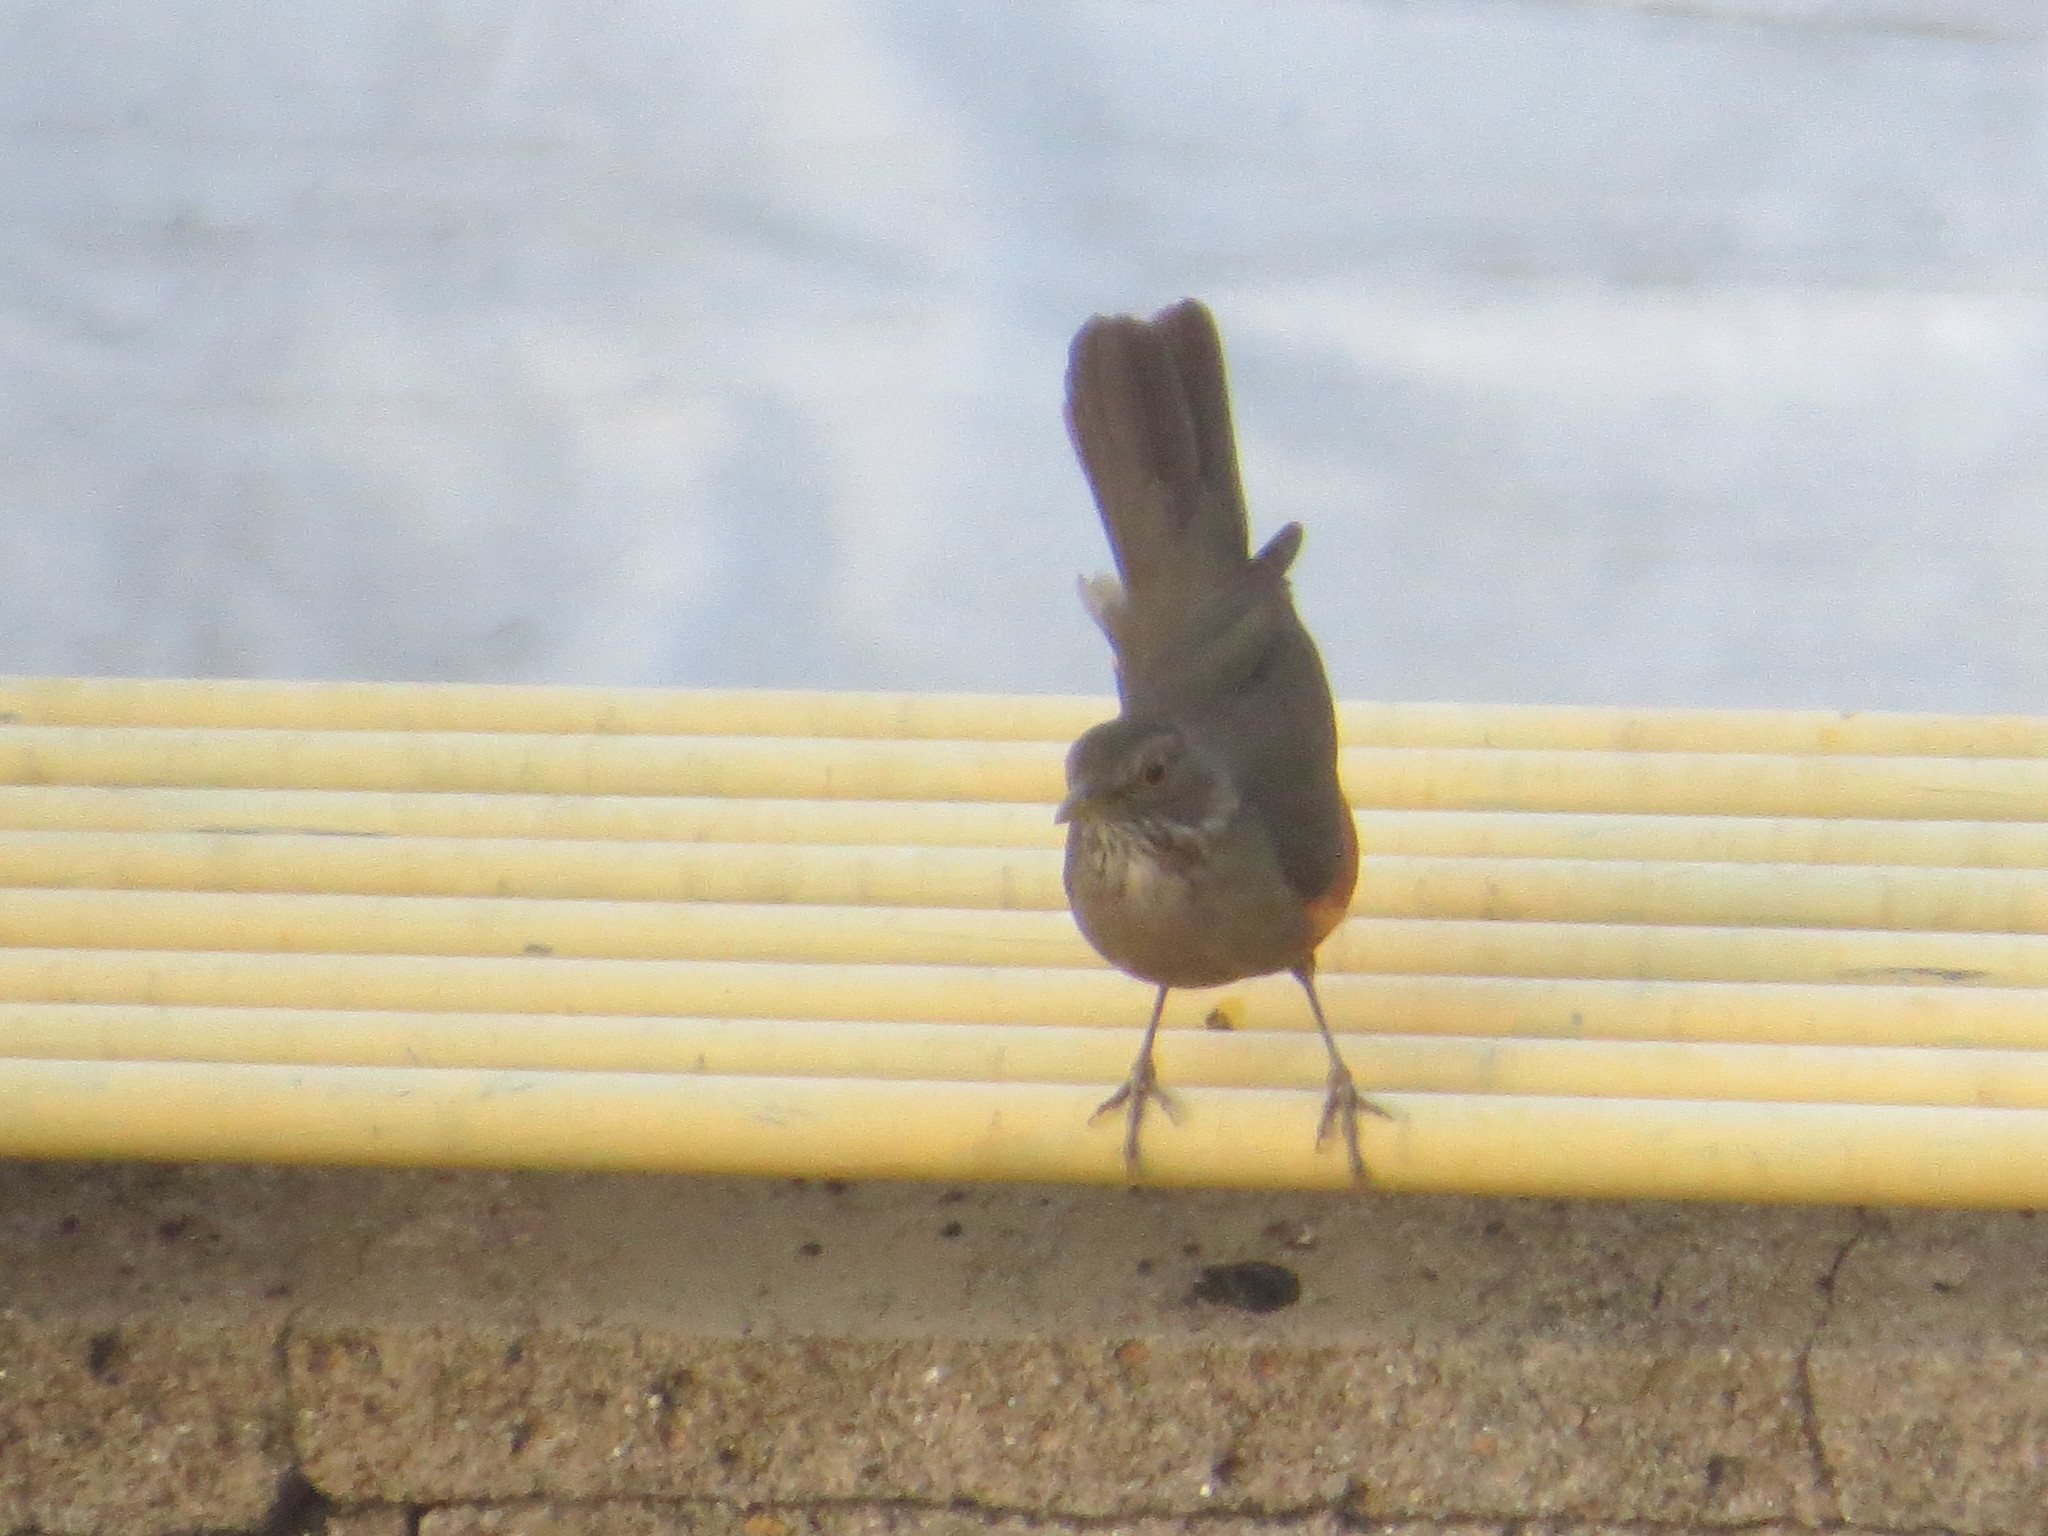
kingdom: Animalia
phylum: Chordata
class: Aves
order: Passeriformes
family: Turdidae
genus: Turdus
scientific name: Turdus rufiventris
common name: Rufous-bellied thrush
